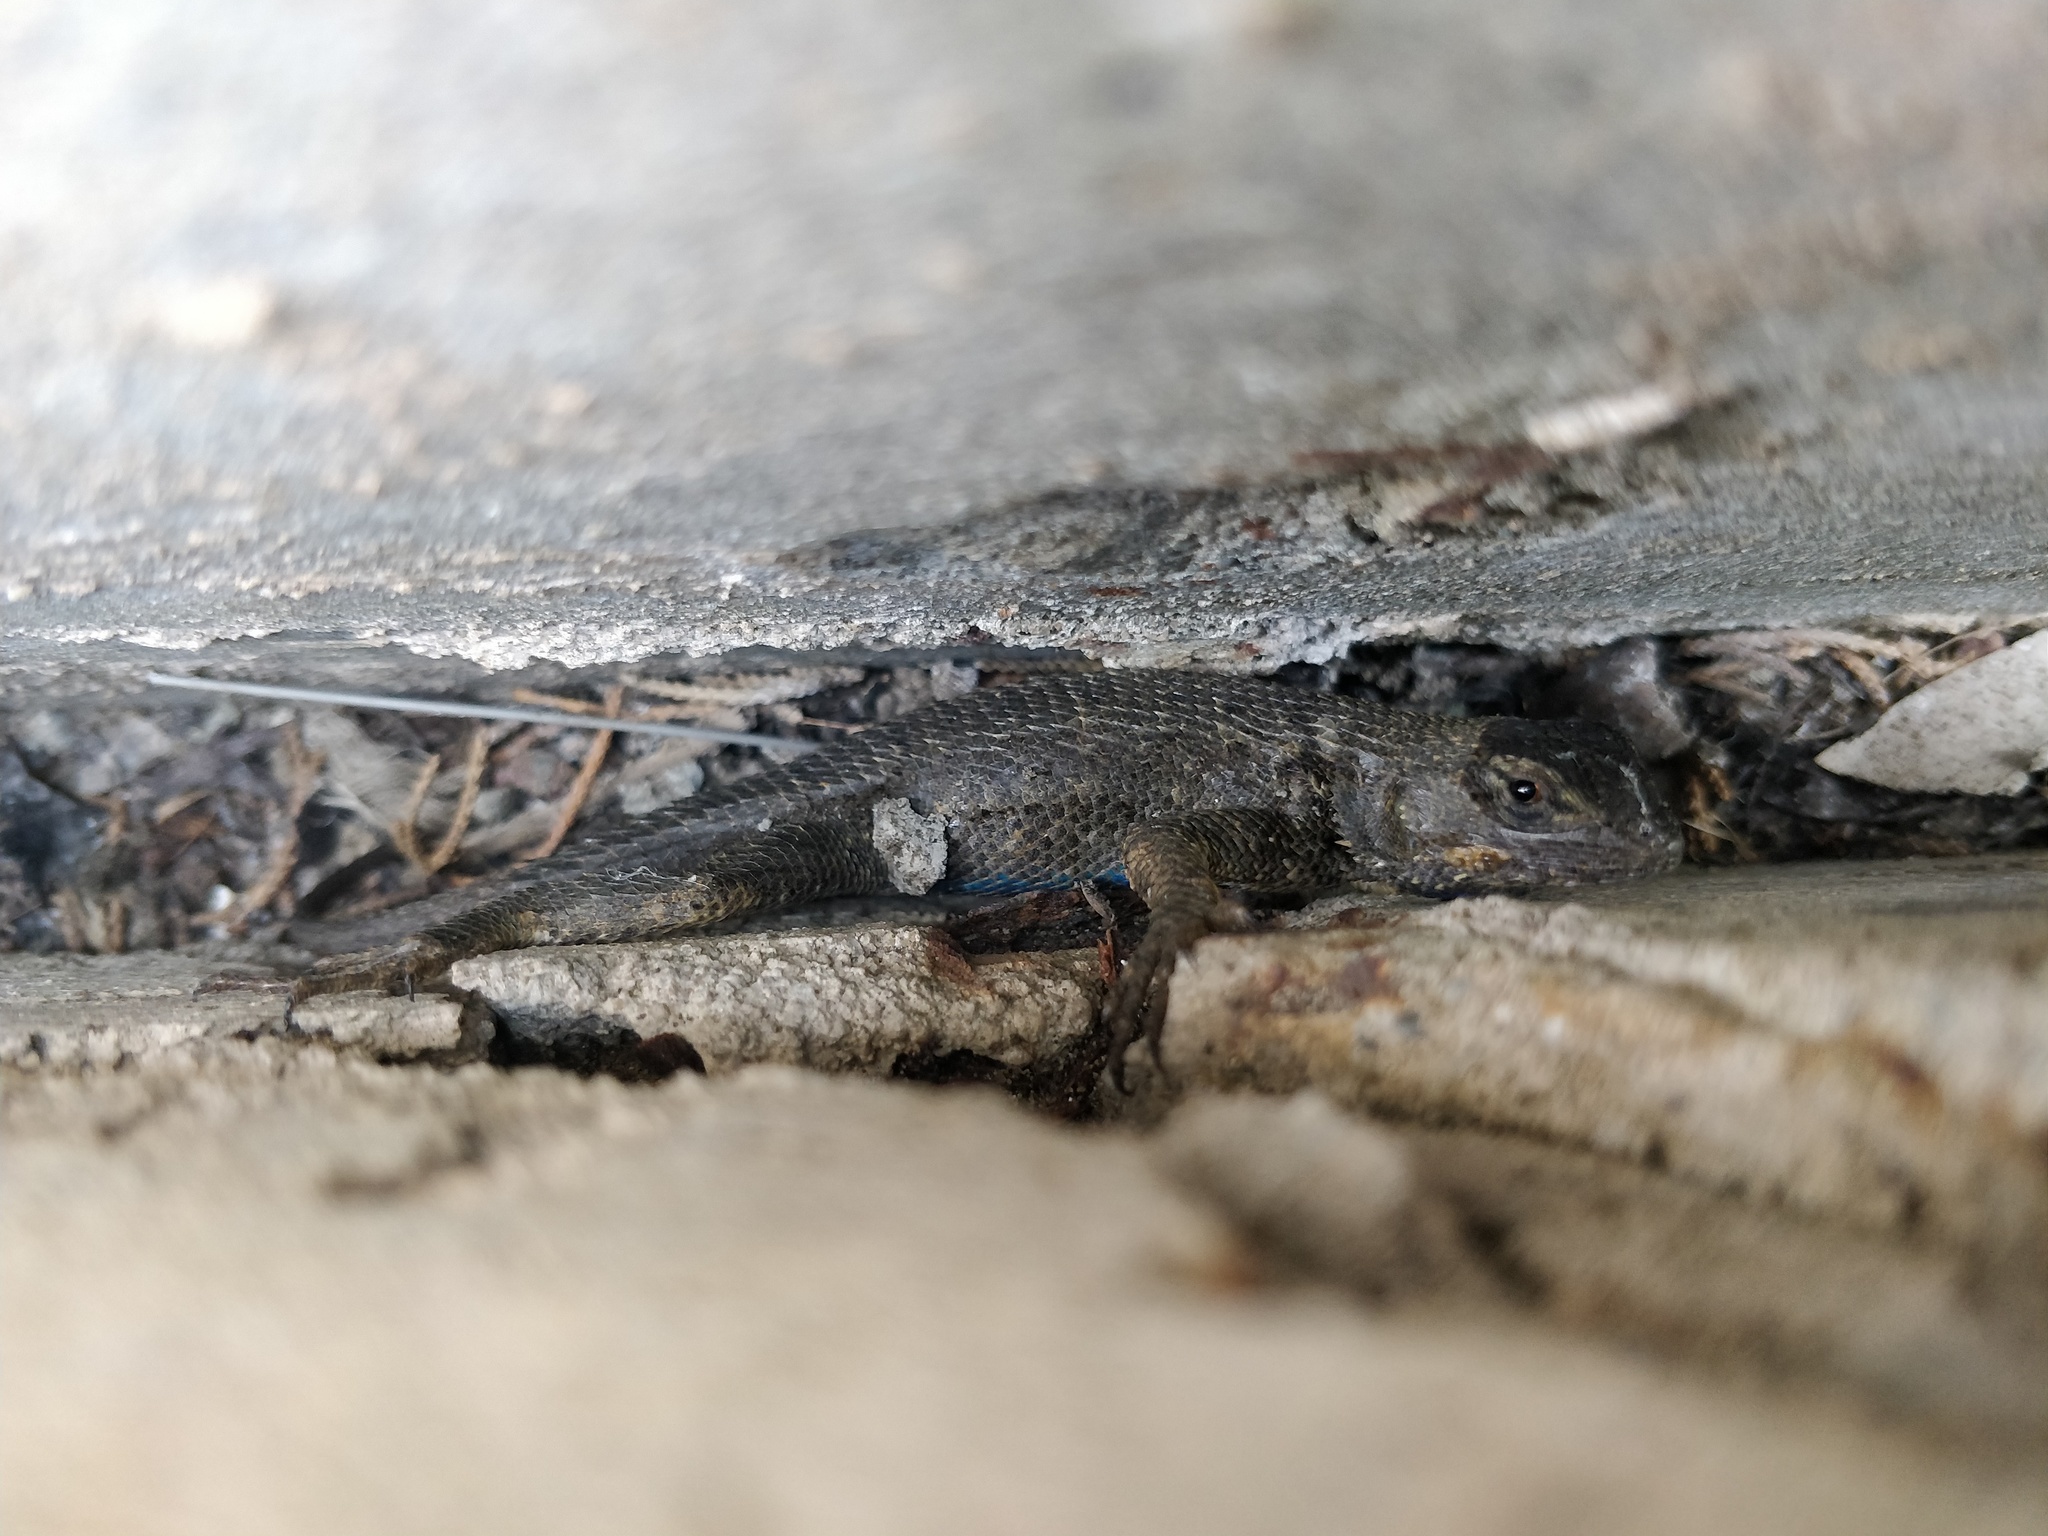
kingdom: Animalia
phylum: Chordata
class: Squamata
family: Phrynosomatidae
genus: Sceloporus
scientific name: Sceloporus occidentalis
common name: Western fence lizard
